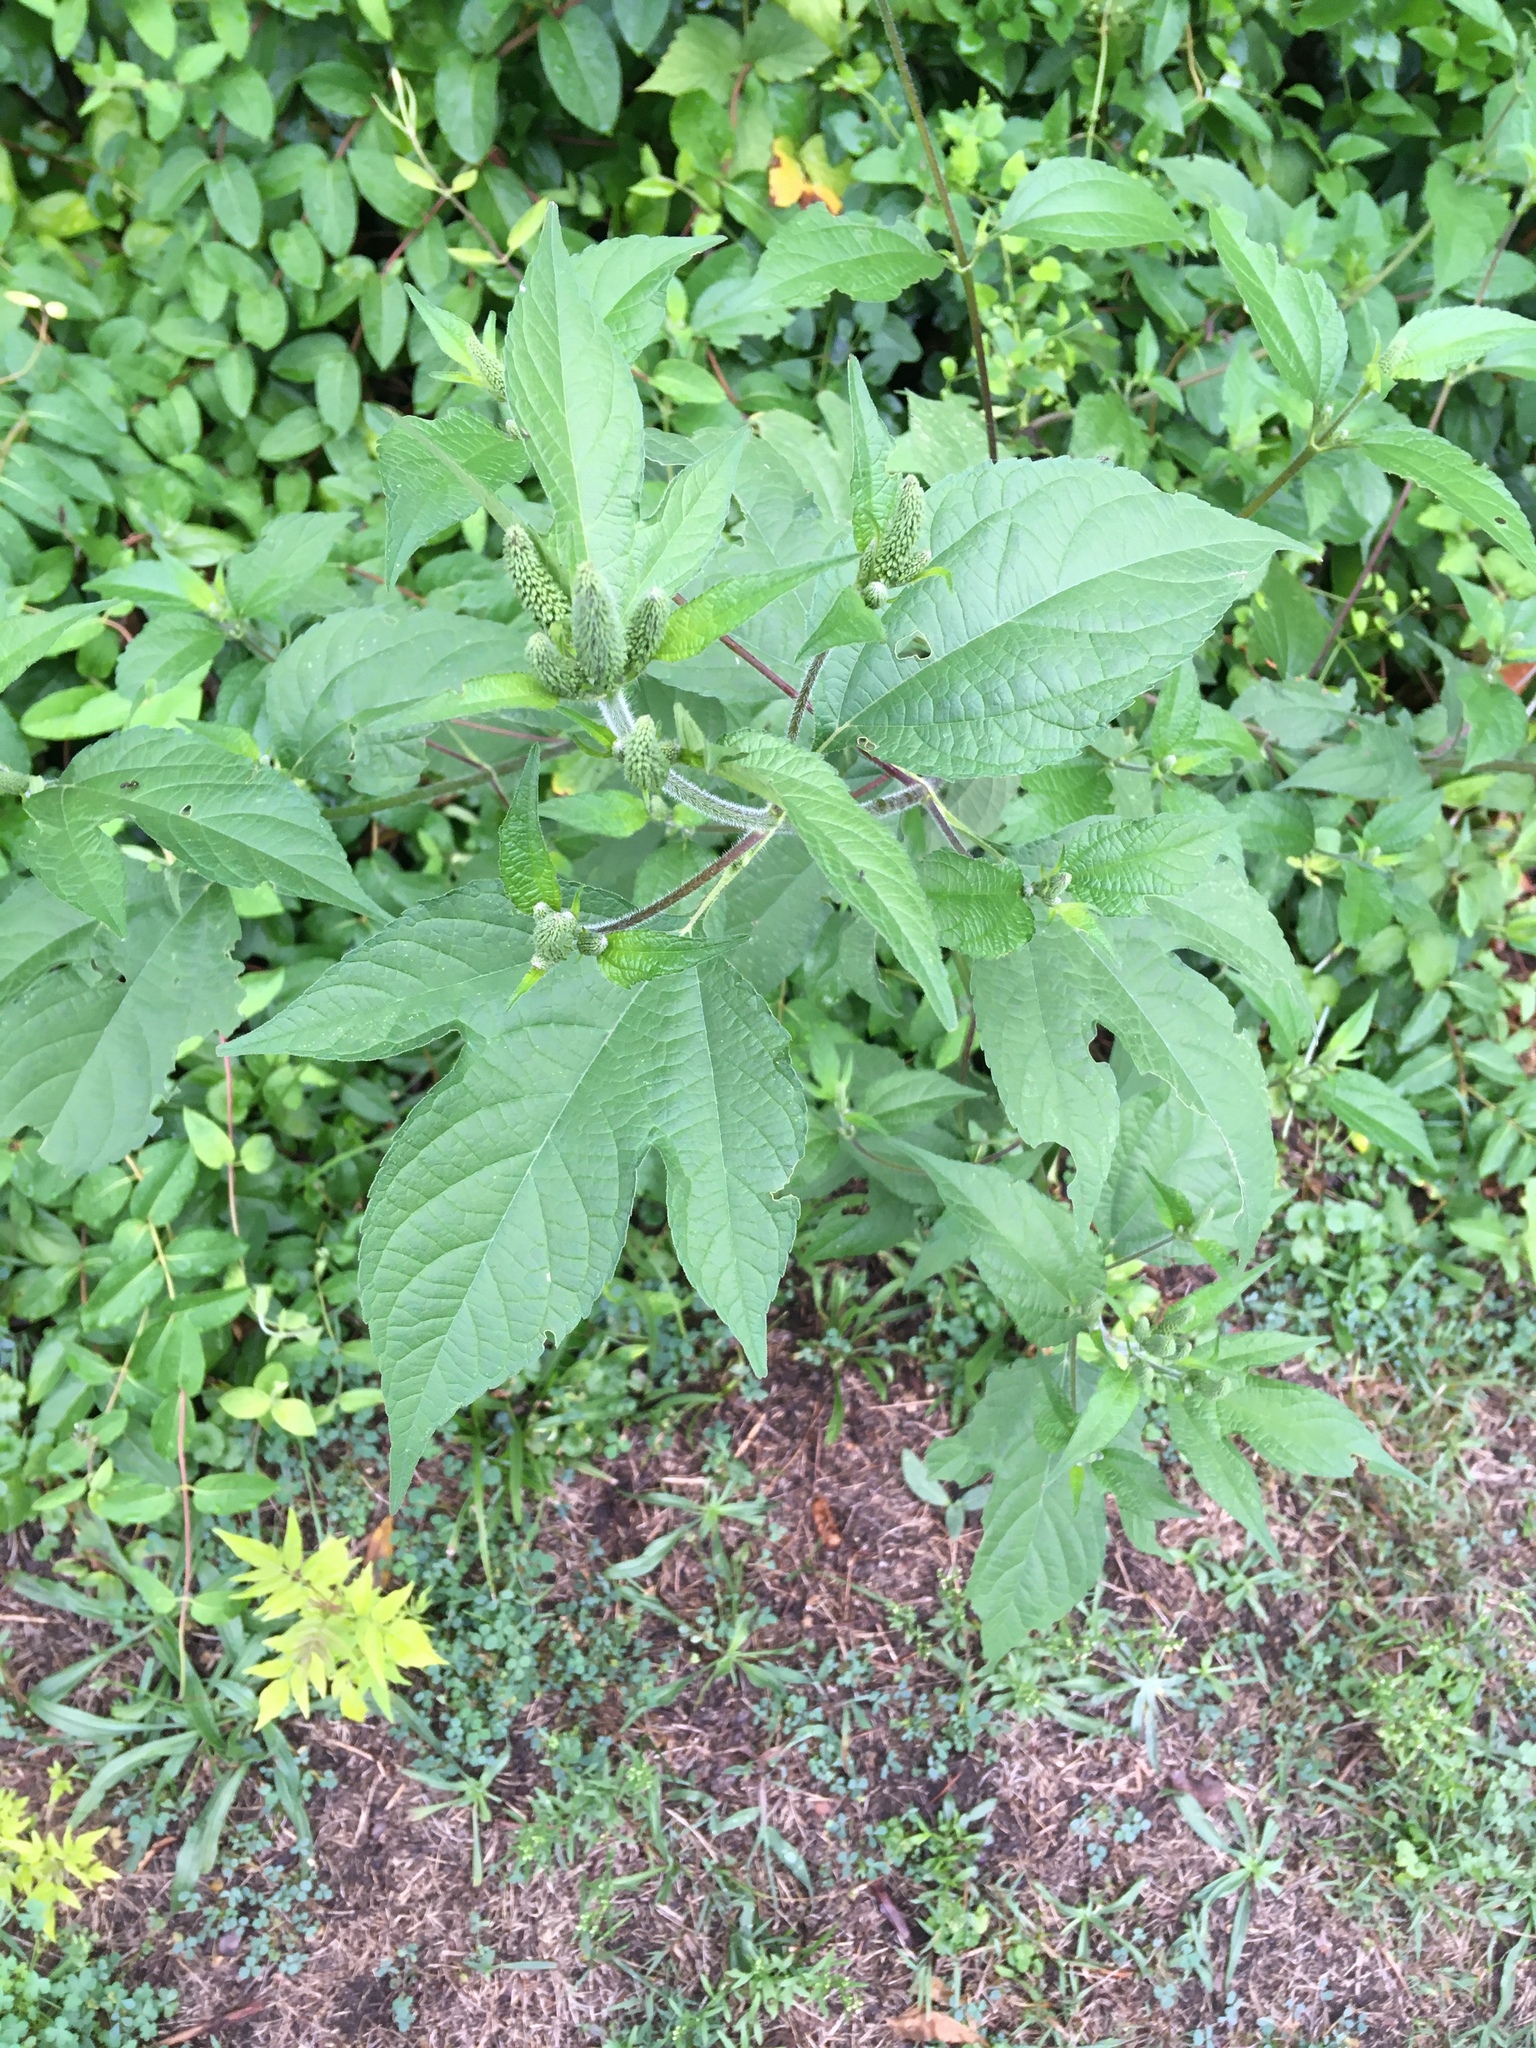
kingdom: Plantae
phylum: Tracheophyta
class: Magnoliopsida
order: Asterales
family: Asteraceae
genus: Ambrosia
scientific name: Ambrosia trifida
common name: Giant ragweed
